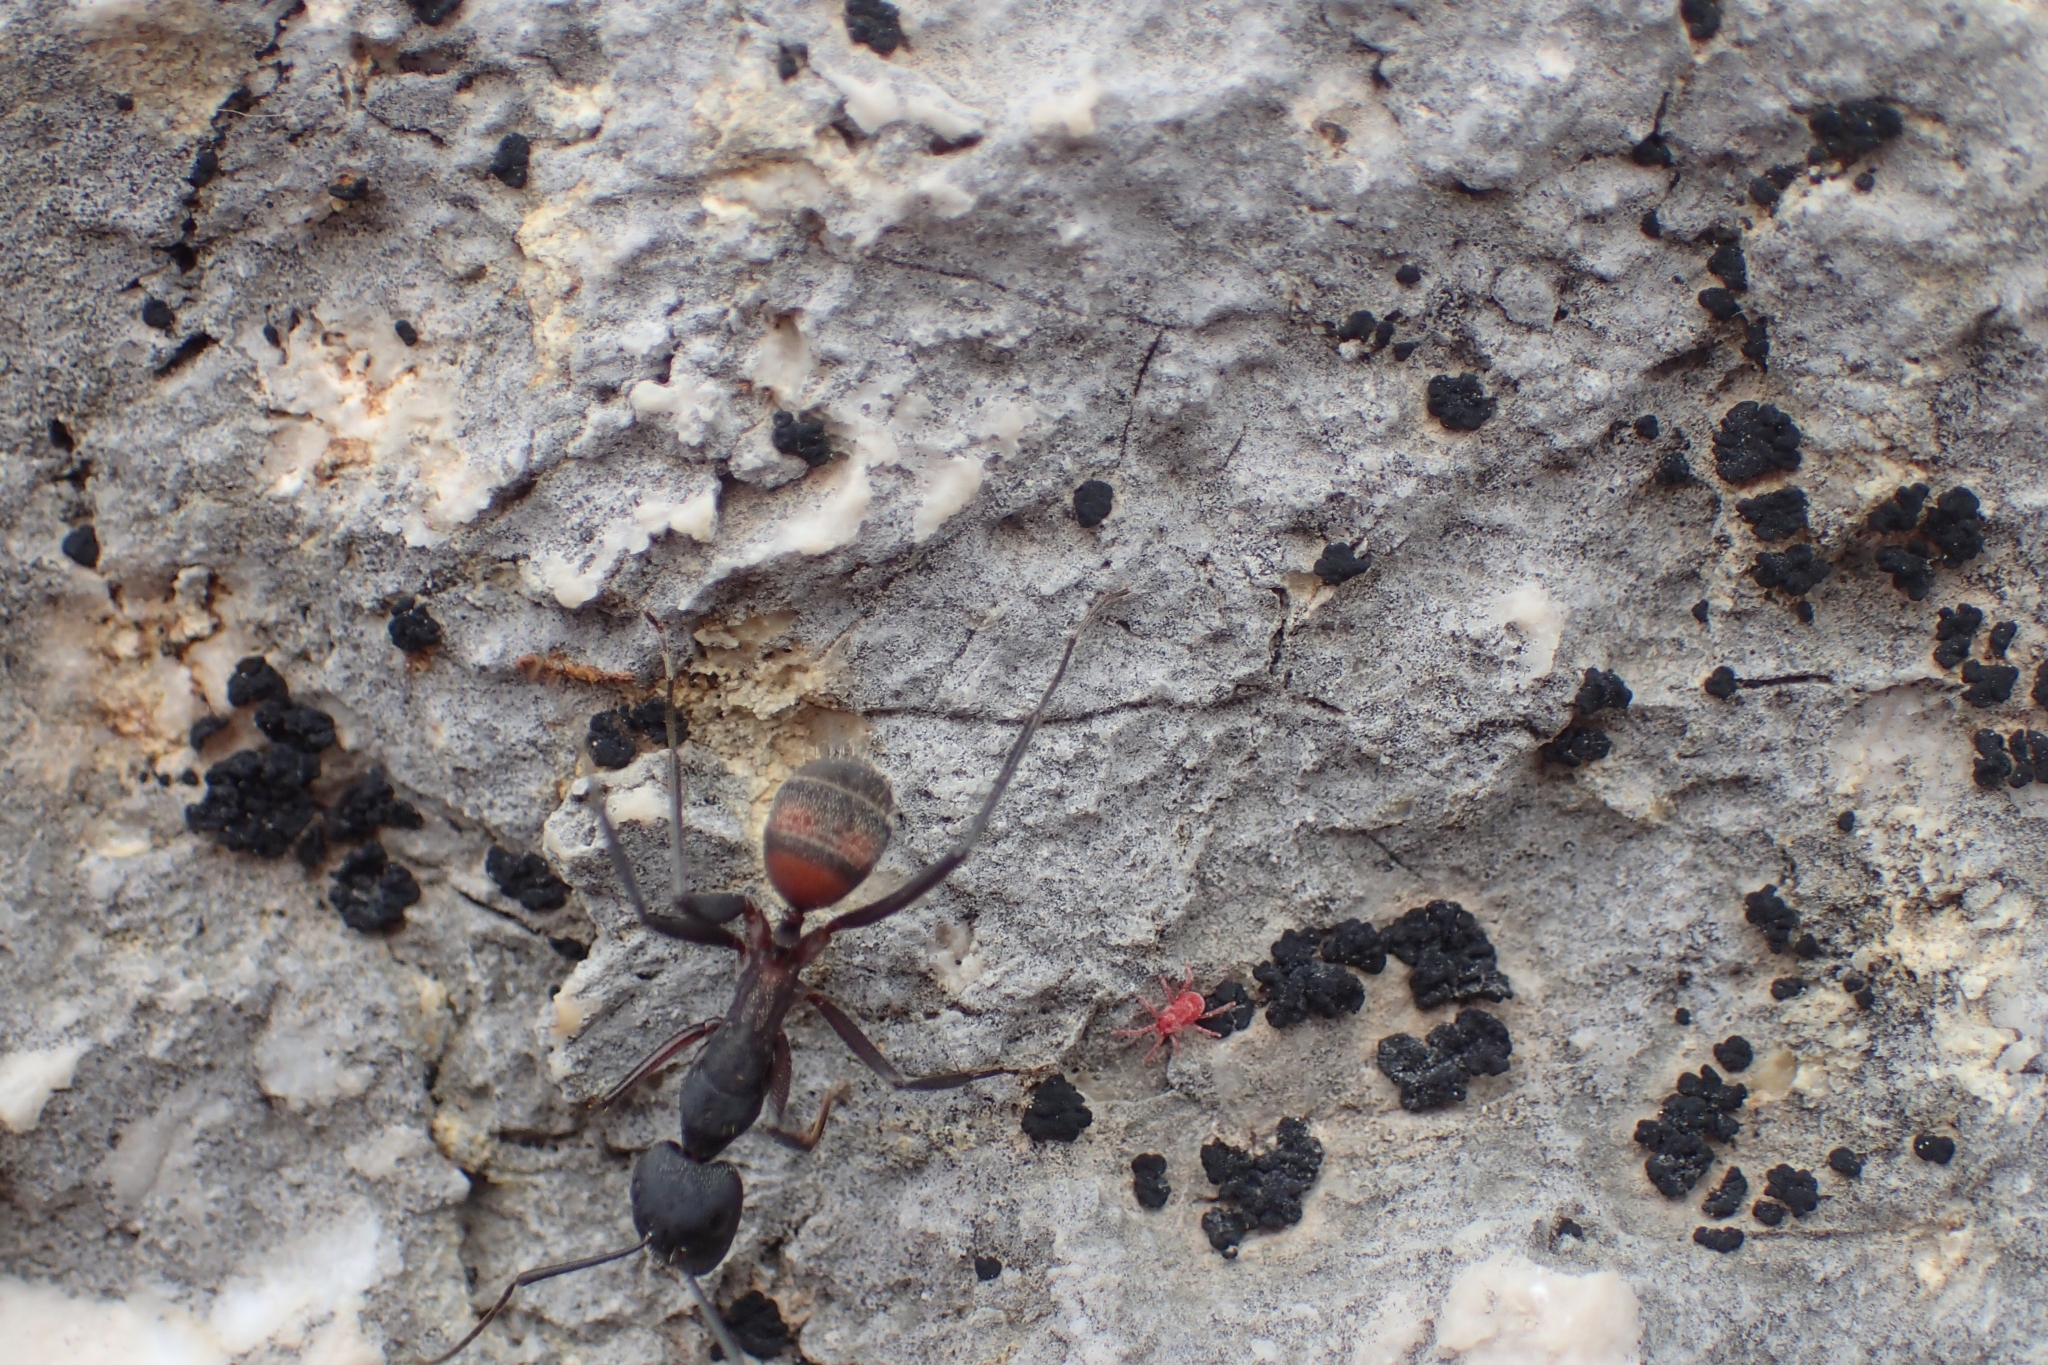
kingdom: Animalia
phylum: Arthropoda
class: Insecta
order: Hymenoptera
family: Formicidae
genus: Camponotus
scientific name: Camponotus cruentatus
